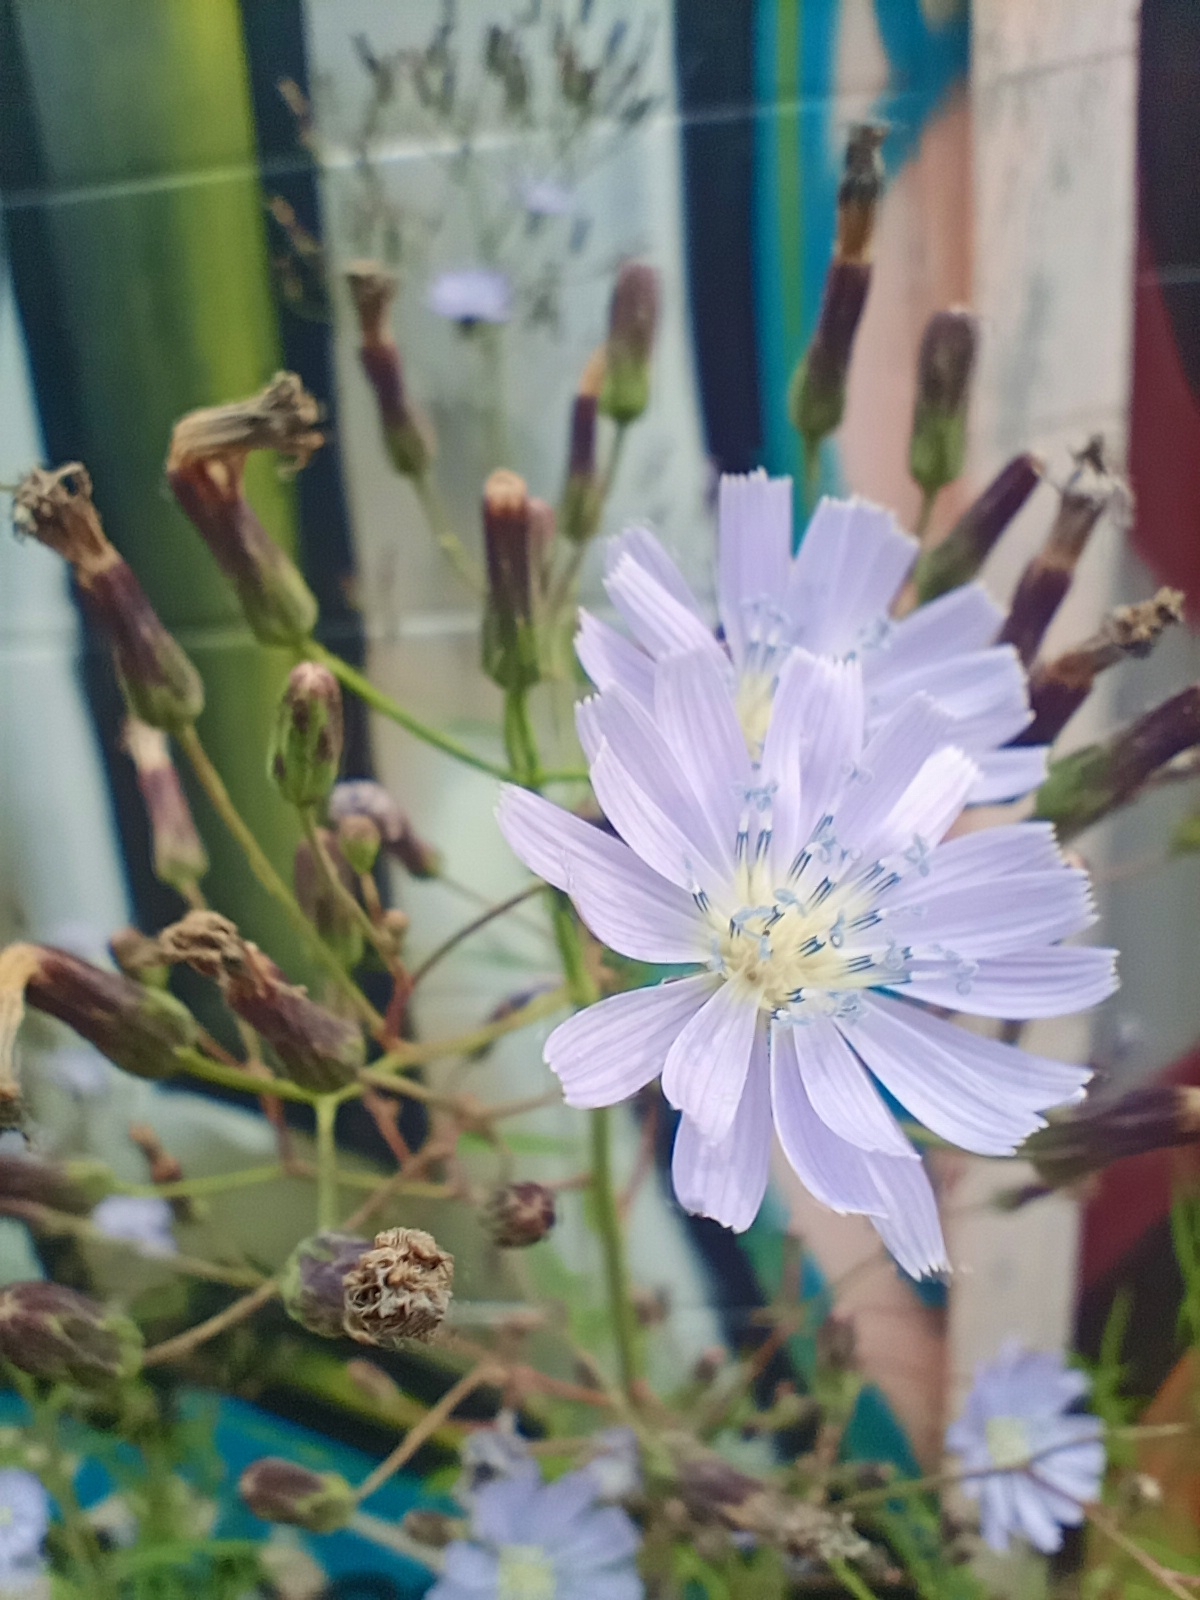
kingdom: Plantae
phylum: Tracheophyta
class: Magnoliopsida
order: Asterales
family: Asteraceae
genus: Lactuca
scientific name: Lactuca tatarica
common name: Blue lettuce
